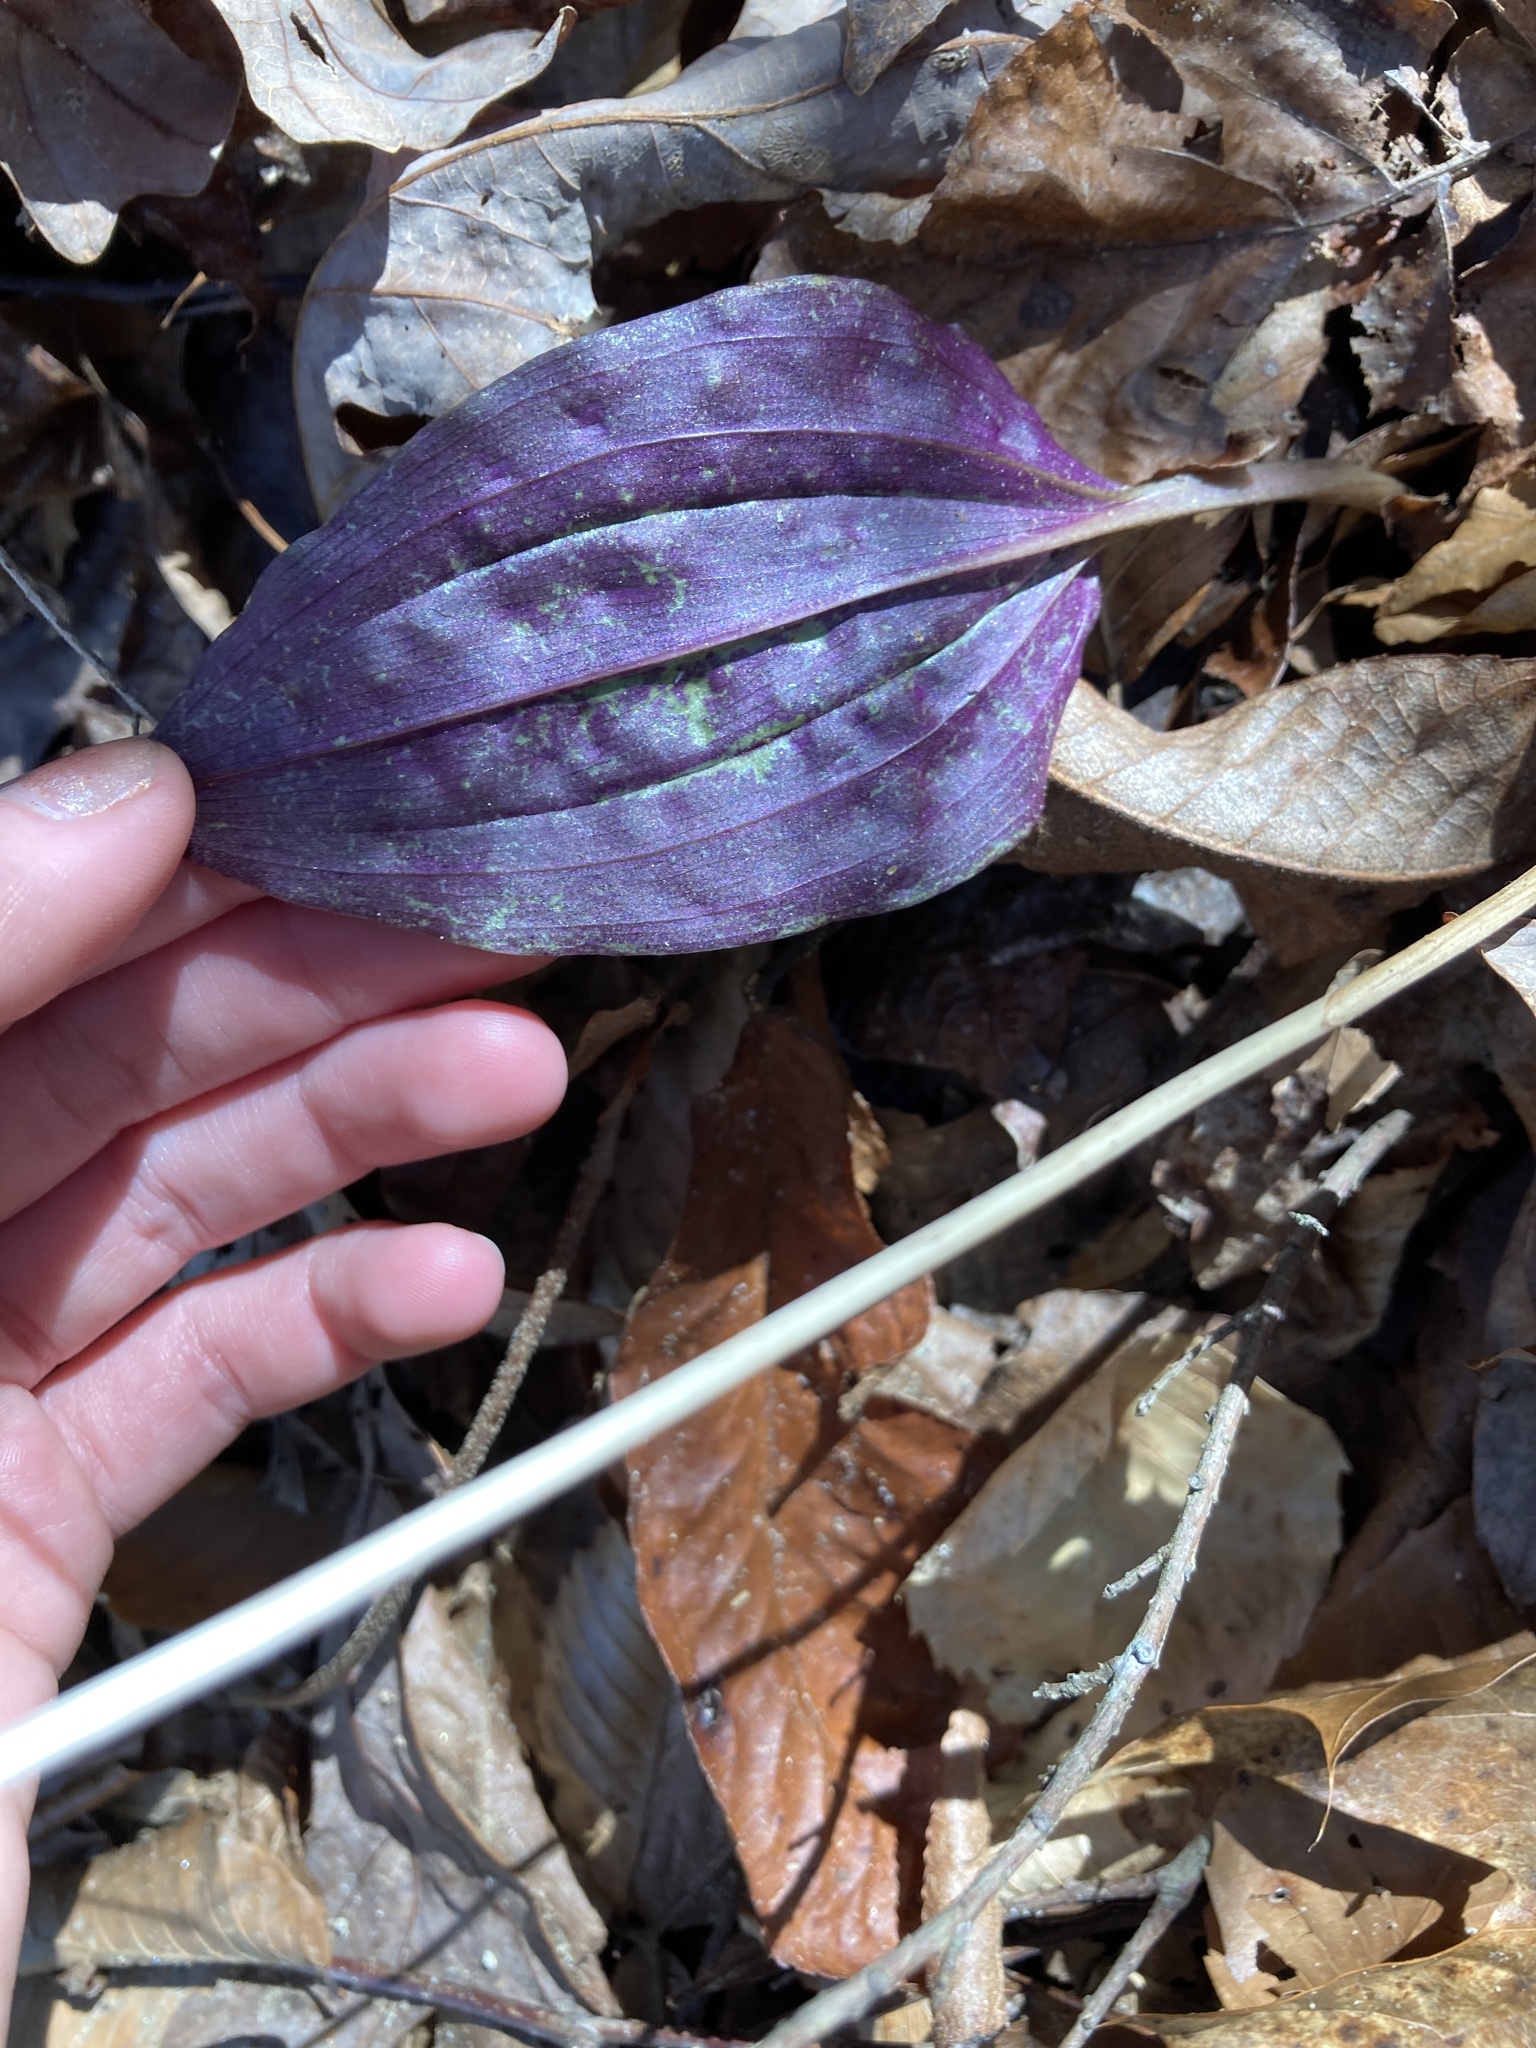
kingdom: Plantae
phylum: Tracheophyta
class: Liliopsida
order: Asparagales
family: Orchidaceae
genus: Tipularia
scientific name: Tipularia discolor
